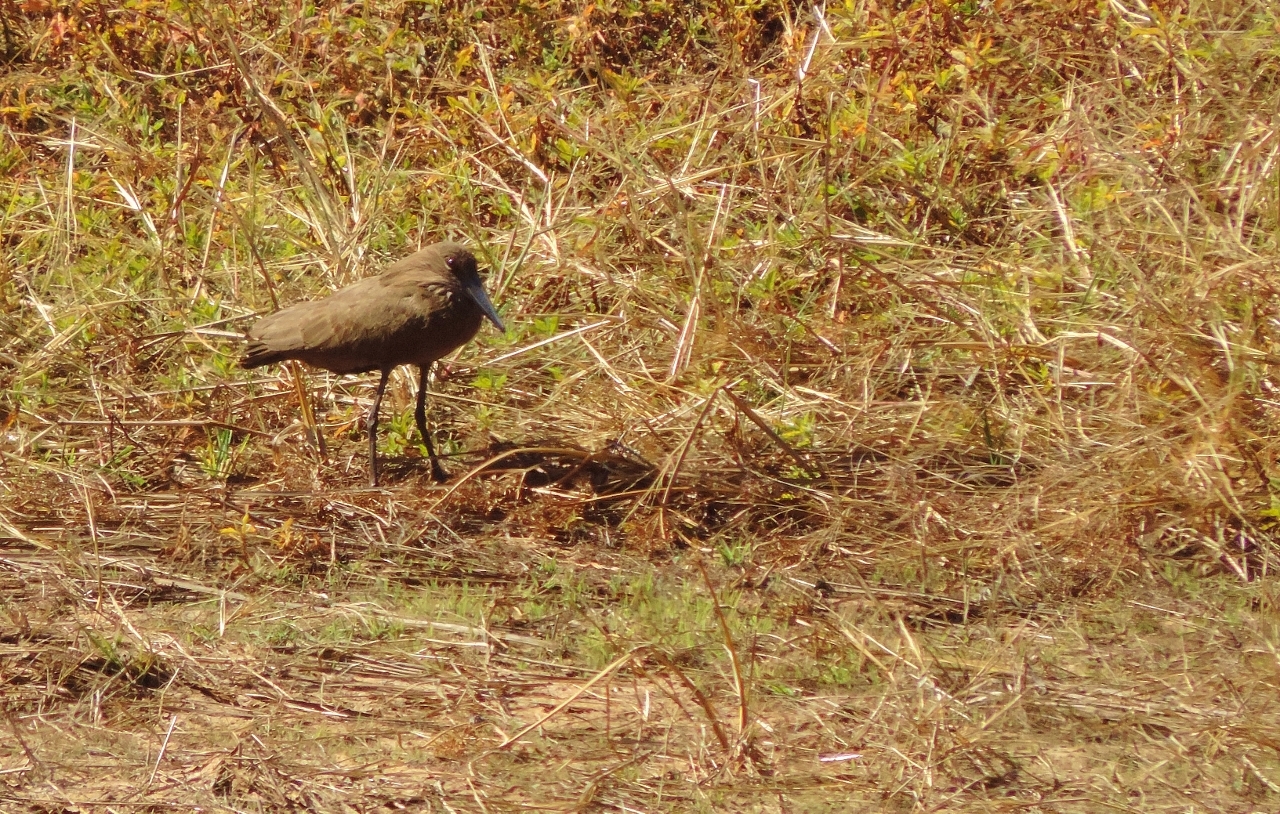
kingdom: Animalia
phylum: Chordata
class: Aves
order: Pelecaniformes
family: Scopidae
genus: Scopus
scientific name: Scopus umbretta
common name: Hamerkop
